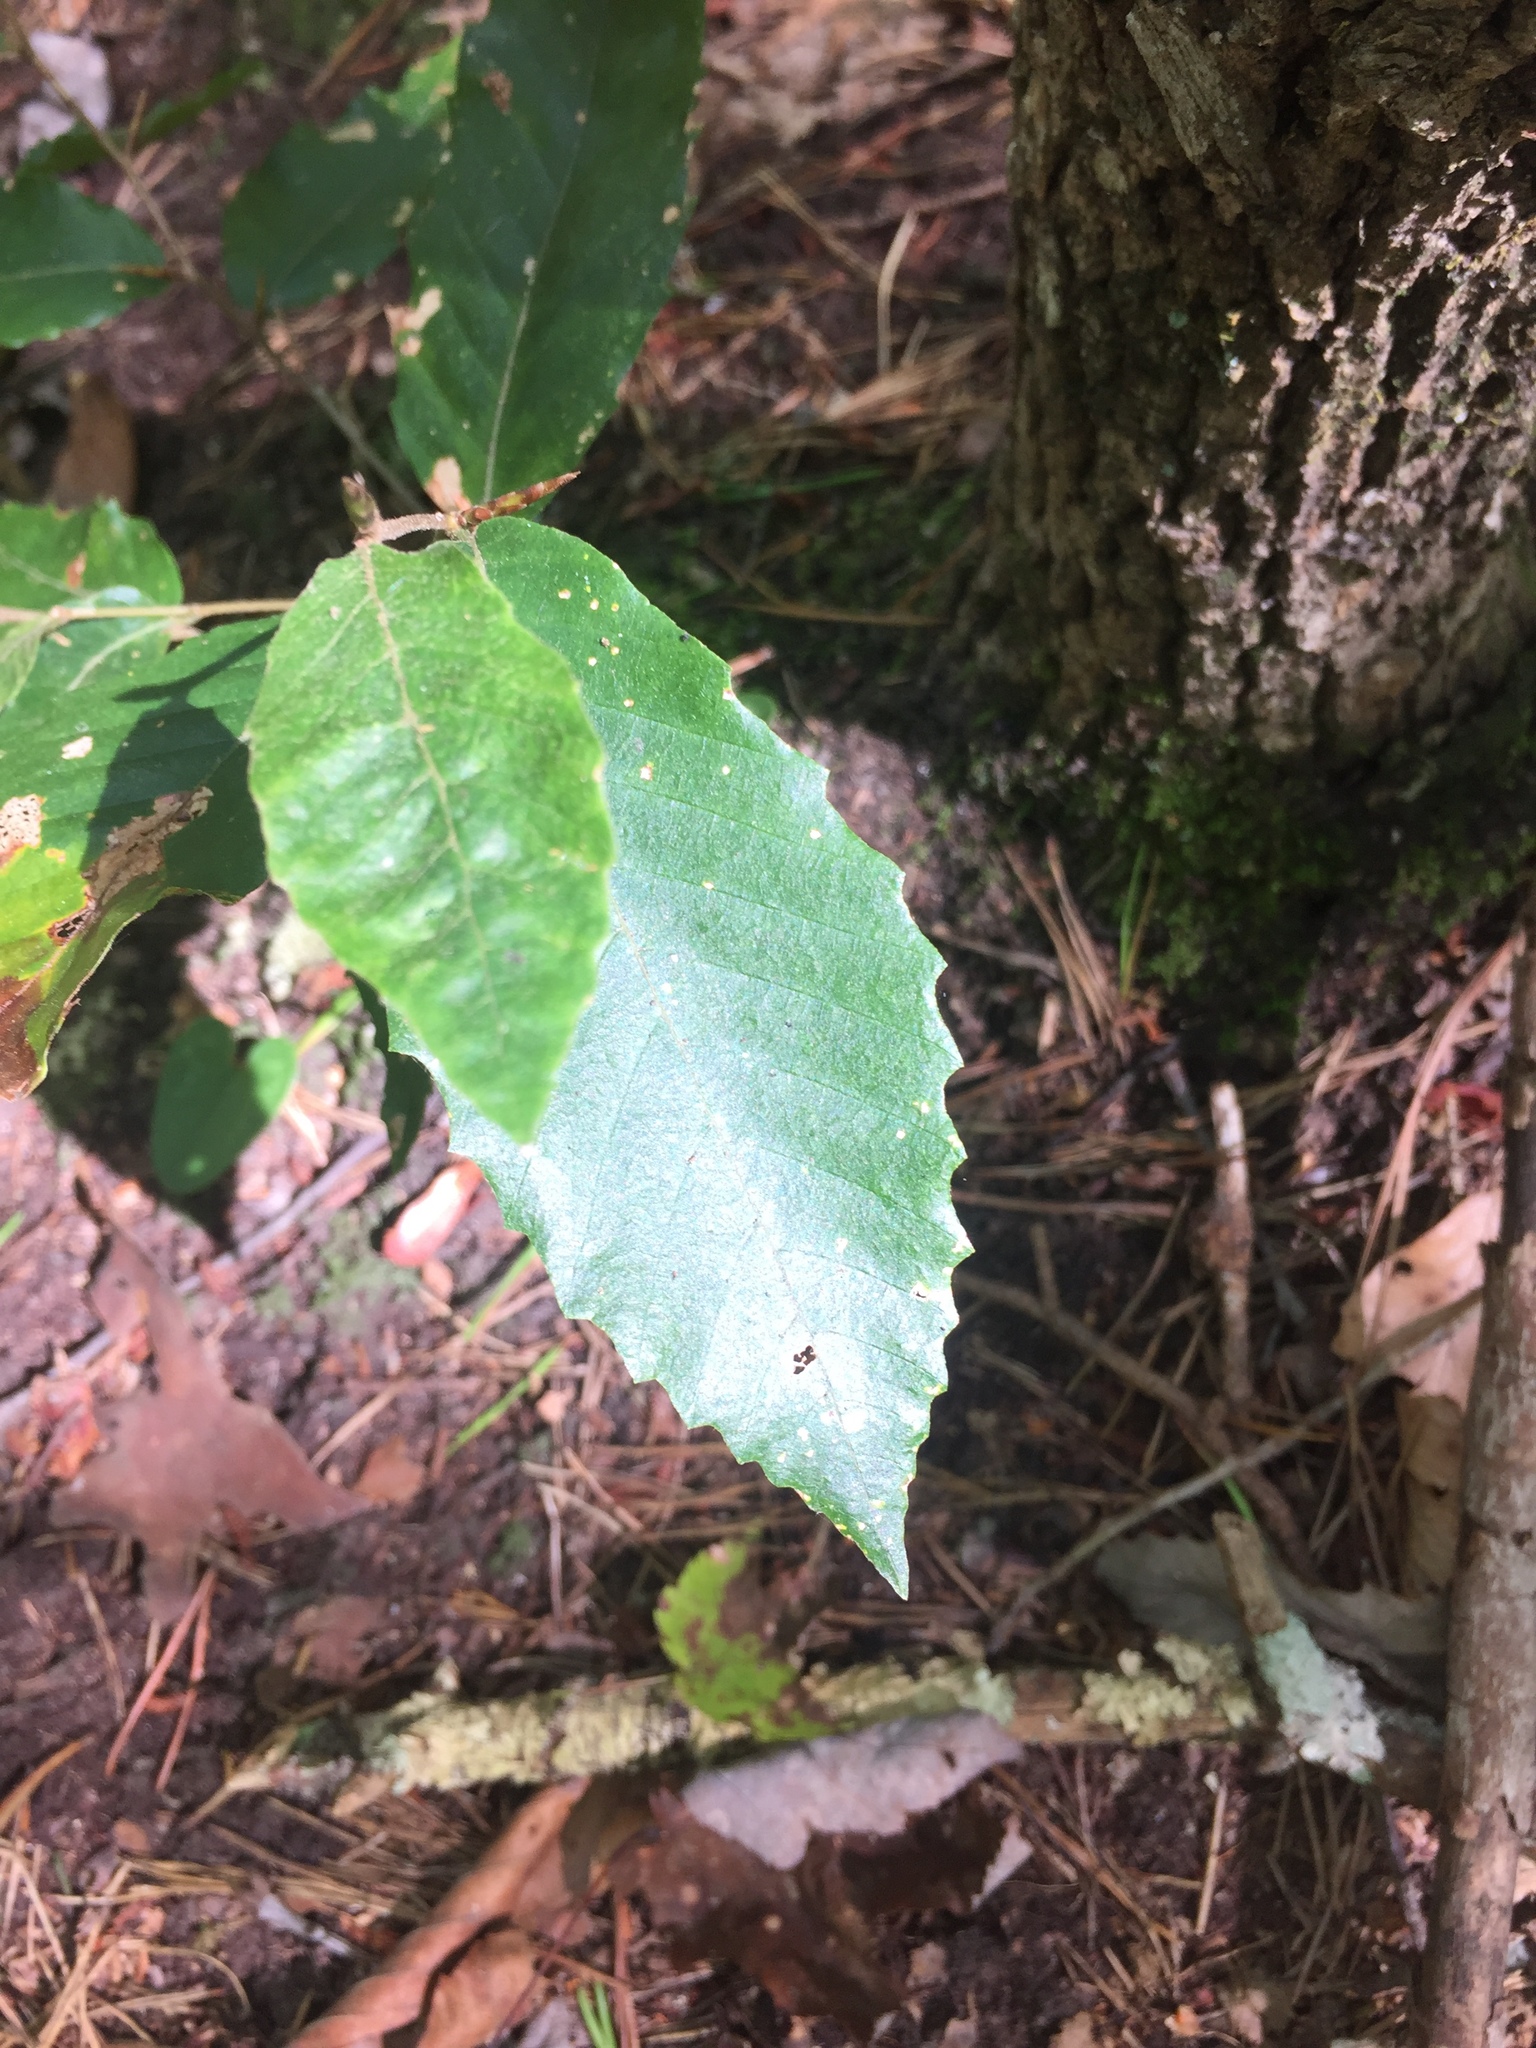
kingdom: Plantae
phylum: Tracheophyta
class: Magnoliopsida
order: Fagales
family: Fagaceae
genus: Fagus
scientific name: Fagus grandifolia
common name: American beech
